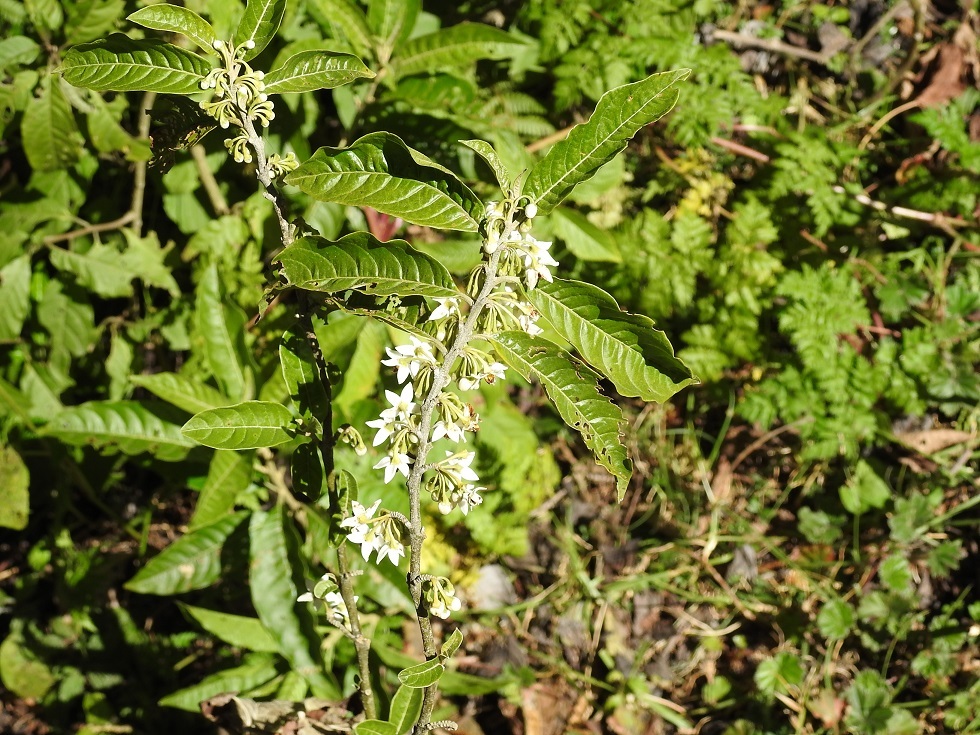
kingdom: Plantae
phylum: Tracheophyta
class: Magnoliopsida
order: Solanales
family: Solanaceae
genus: Solanum
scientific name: Solanum nigricans
